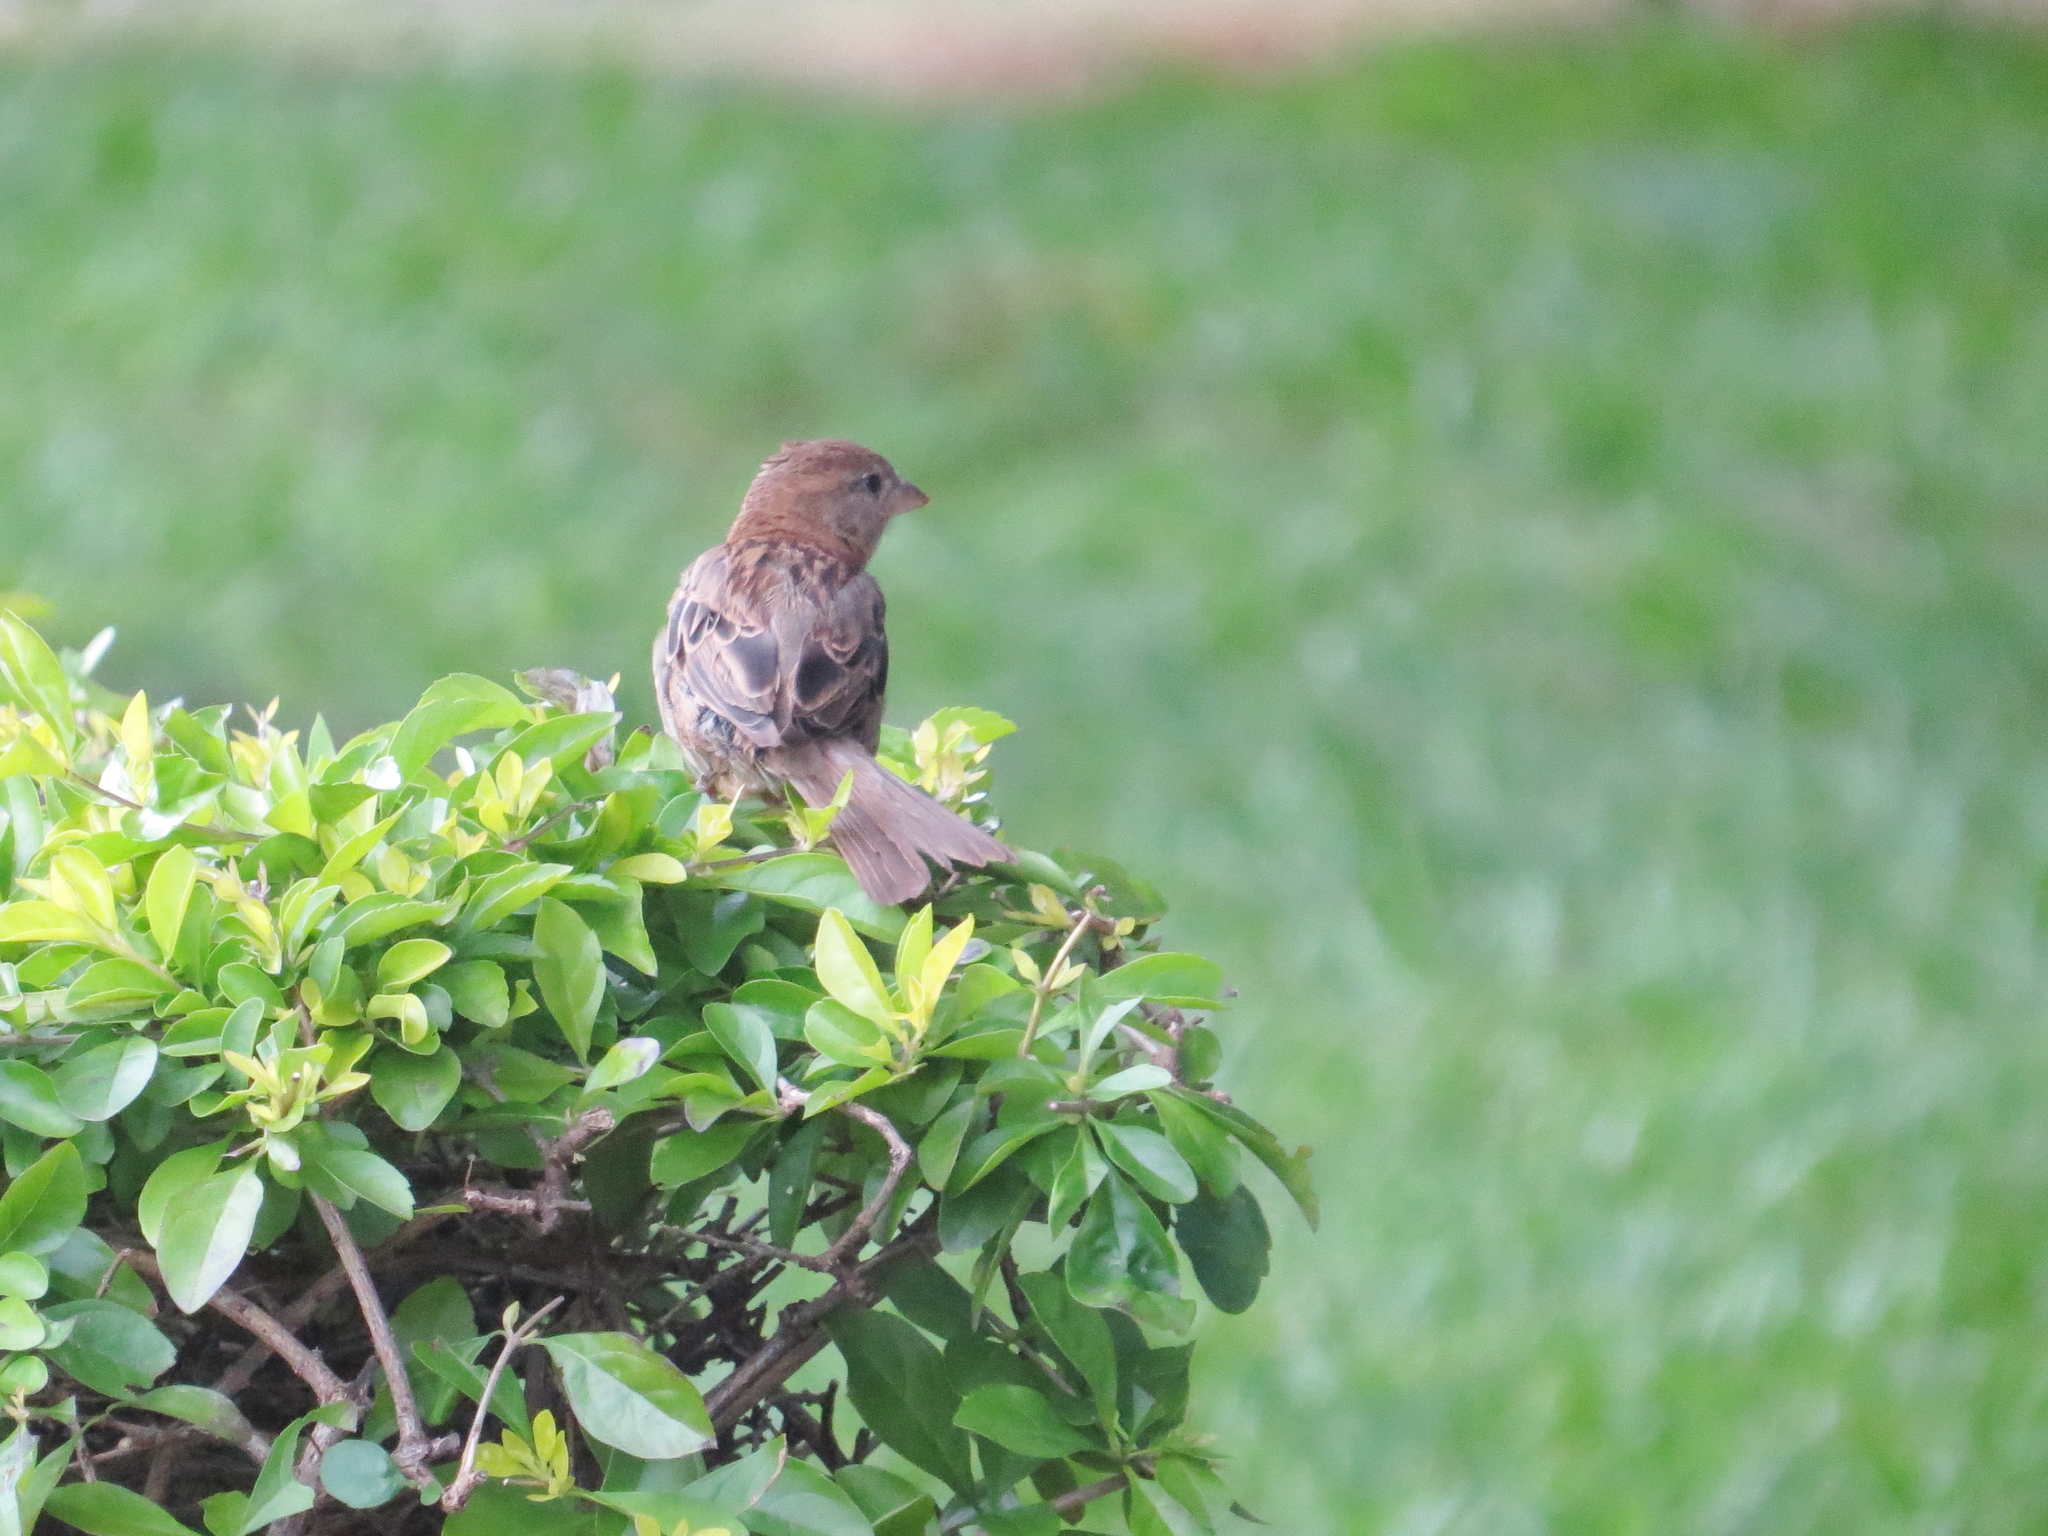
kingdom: Animalia
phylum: Chordata
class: Aves
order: Passeriformes
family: Passeridae
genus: Passer
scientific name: Passer domesticus
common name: House sparrow
